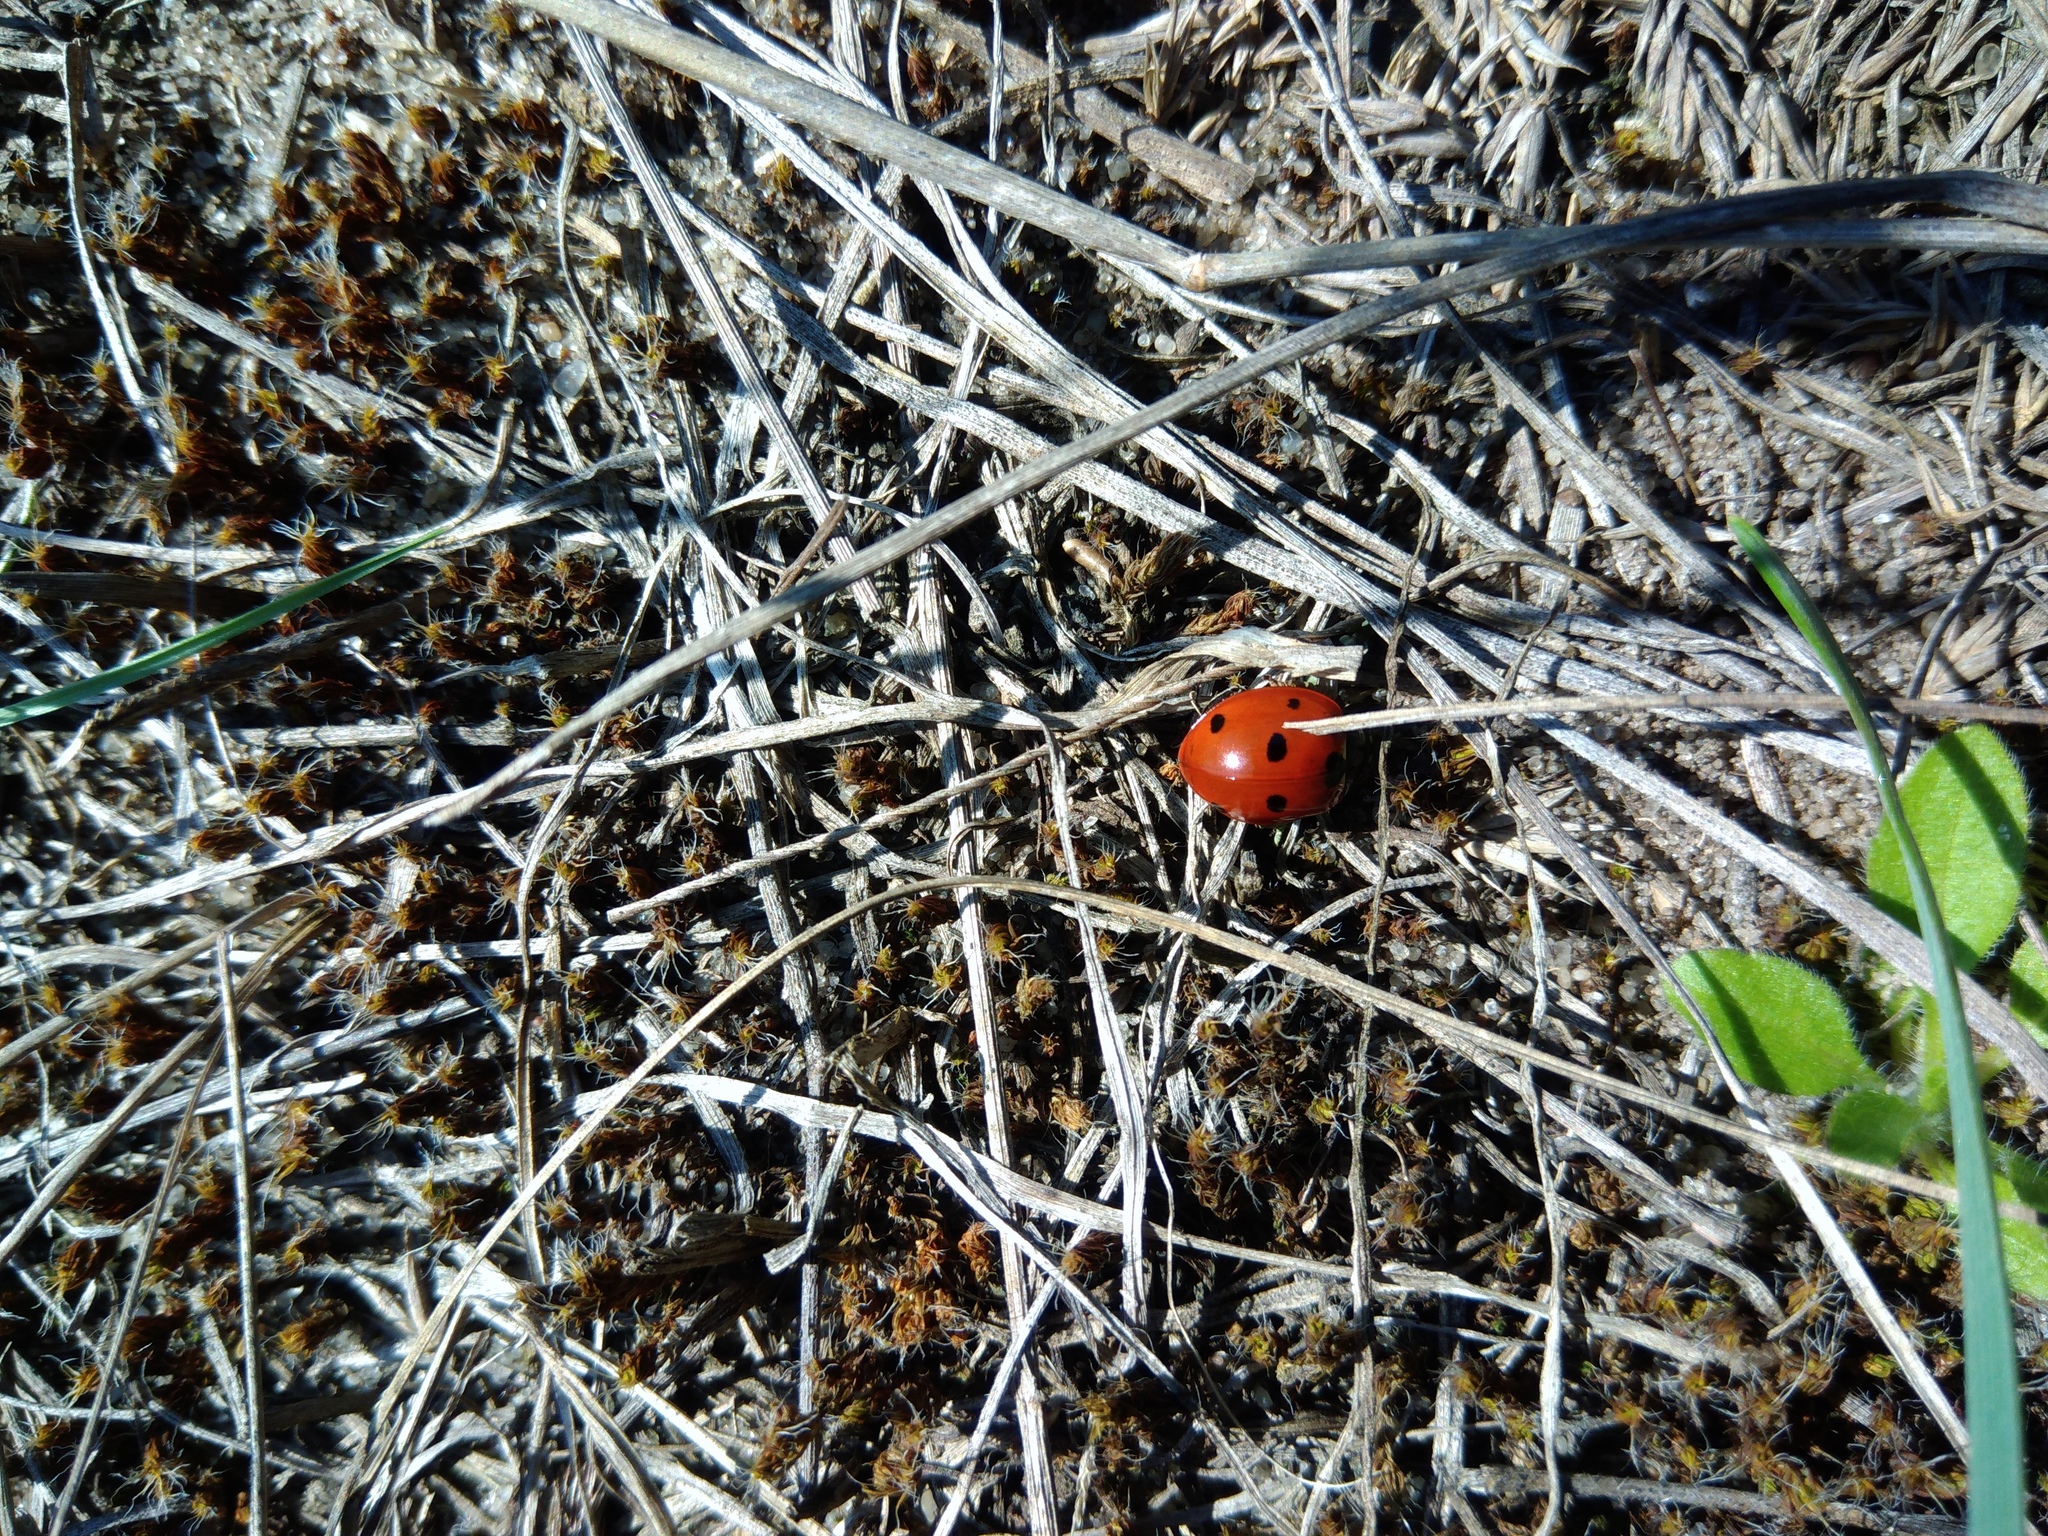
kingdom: Animalia
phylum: Arthropoda
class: Insecta
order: Coleoptera
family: Coccinellidae
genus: Coccinella
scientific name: Coccinella septempunctata
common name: Sevenspotted lady beetle
